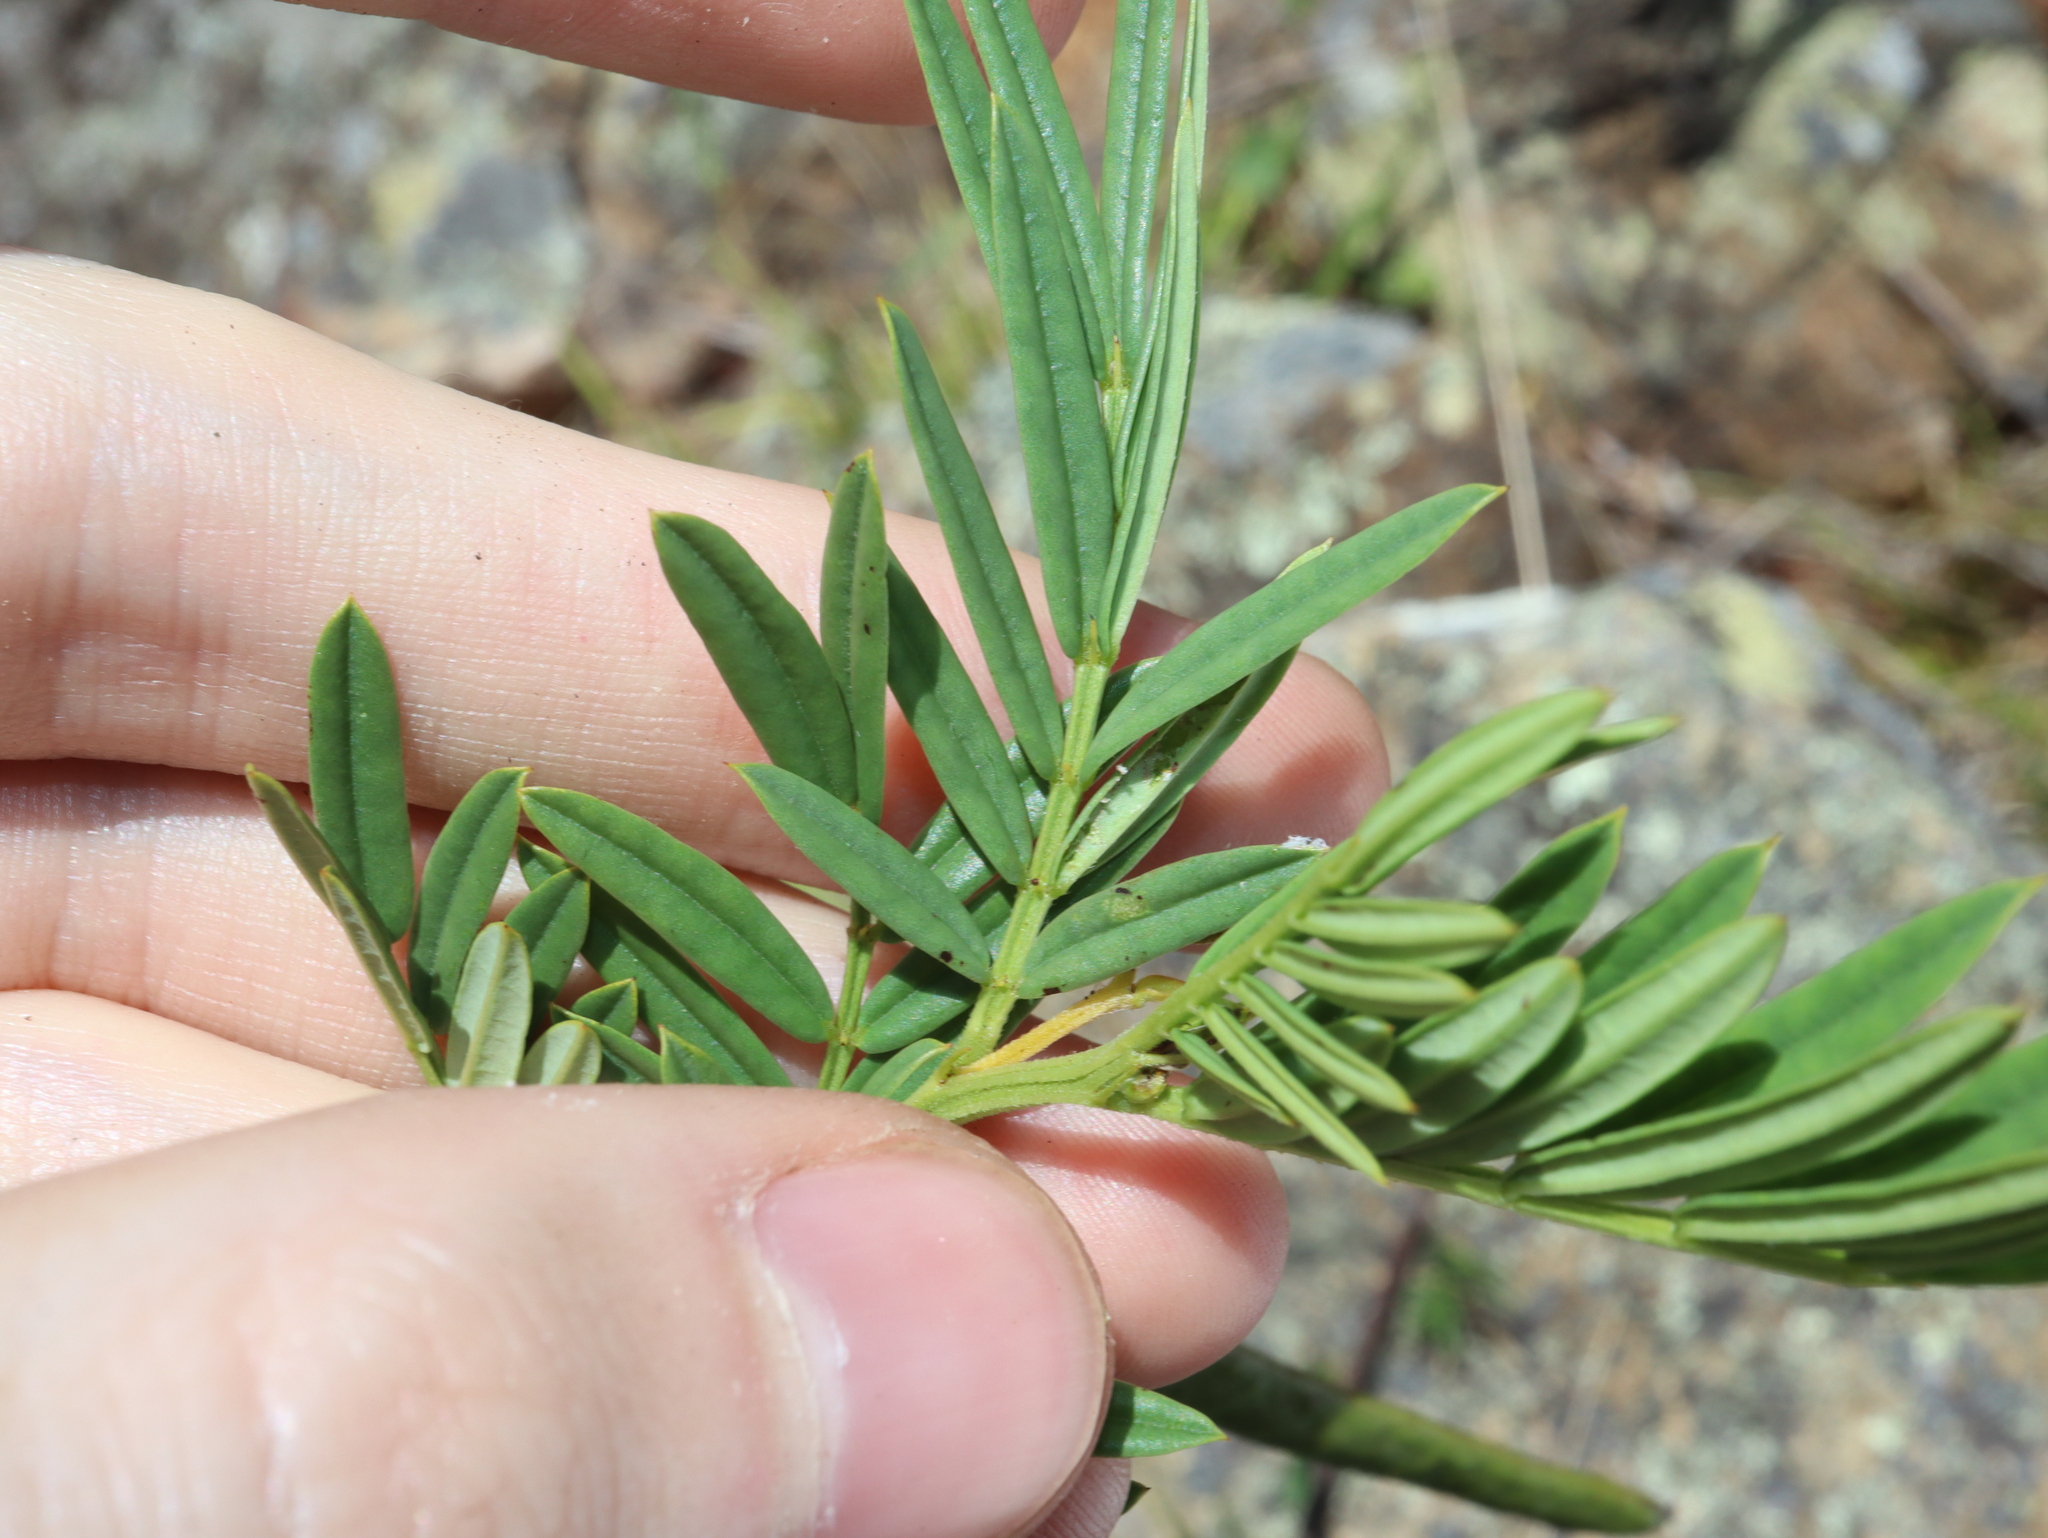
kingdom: Plantae
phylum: Tracheophyta
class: Magnoliopsida
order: Fabales
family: Fabaceae
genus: Senna
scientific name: Senna aciphylla
